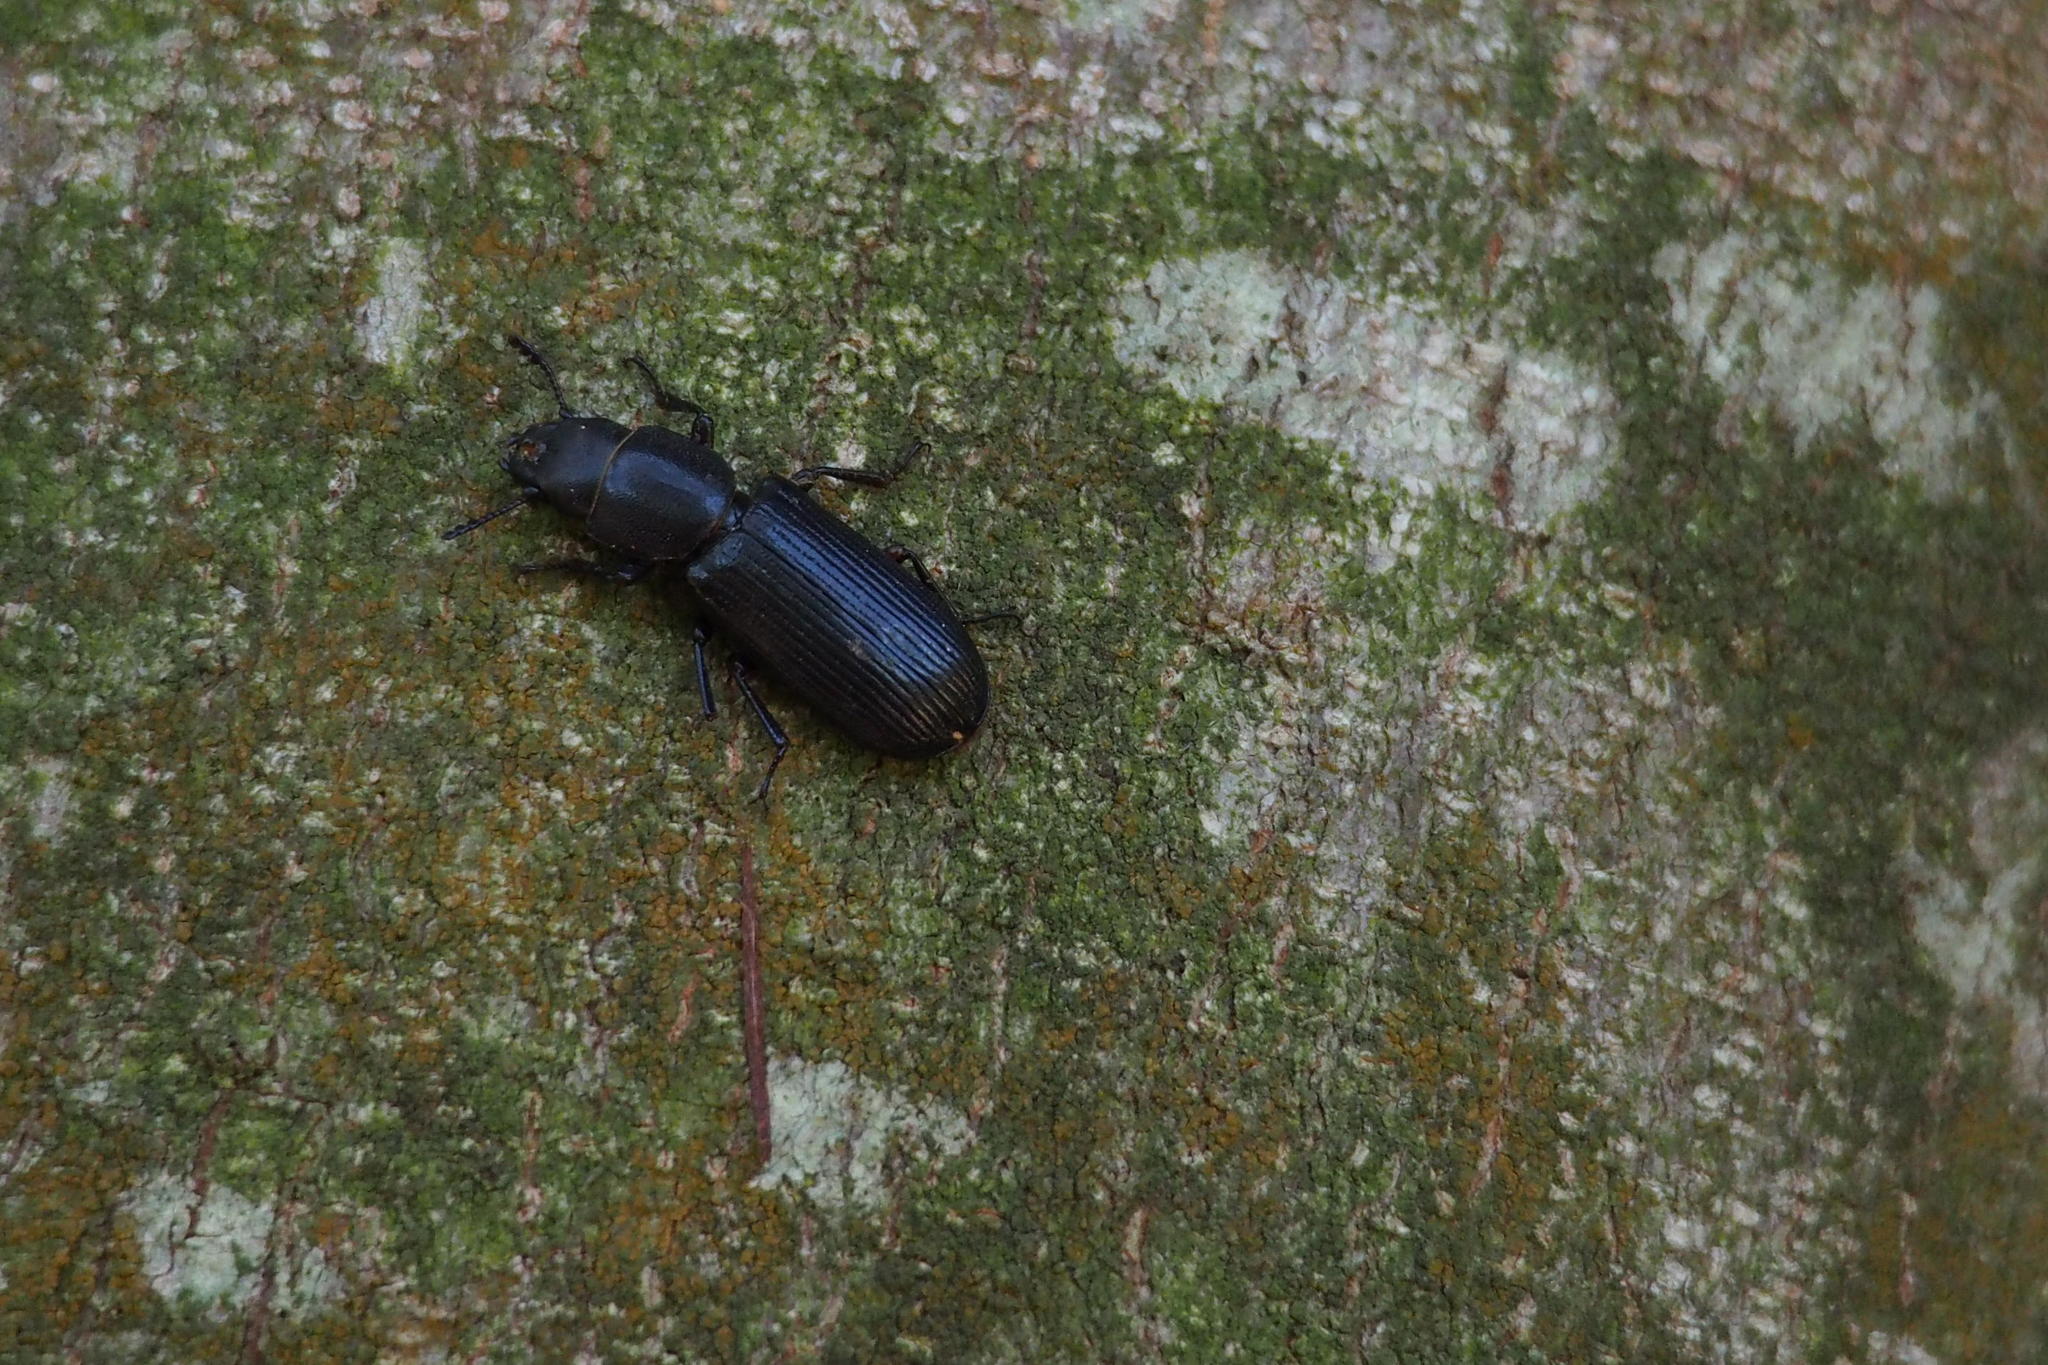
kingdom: Animalia
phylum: Arthropoda
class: Insecta
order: Coleoptera
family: Trogossitidae
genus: Temnoscheila
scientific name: Temnoscheila japonica
